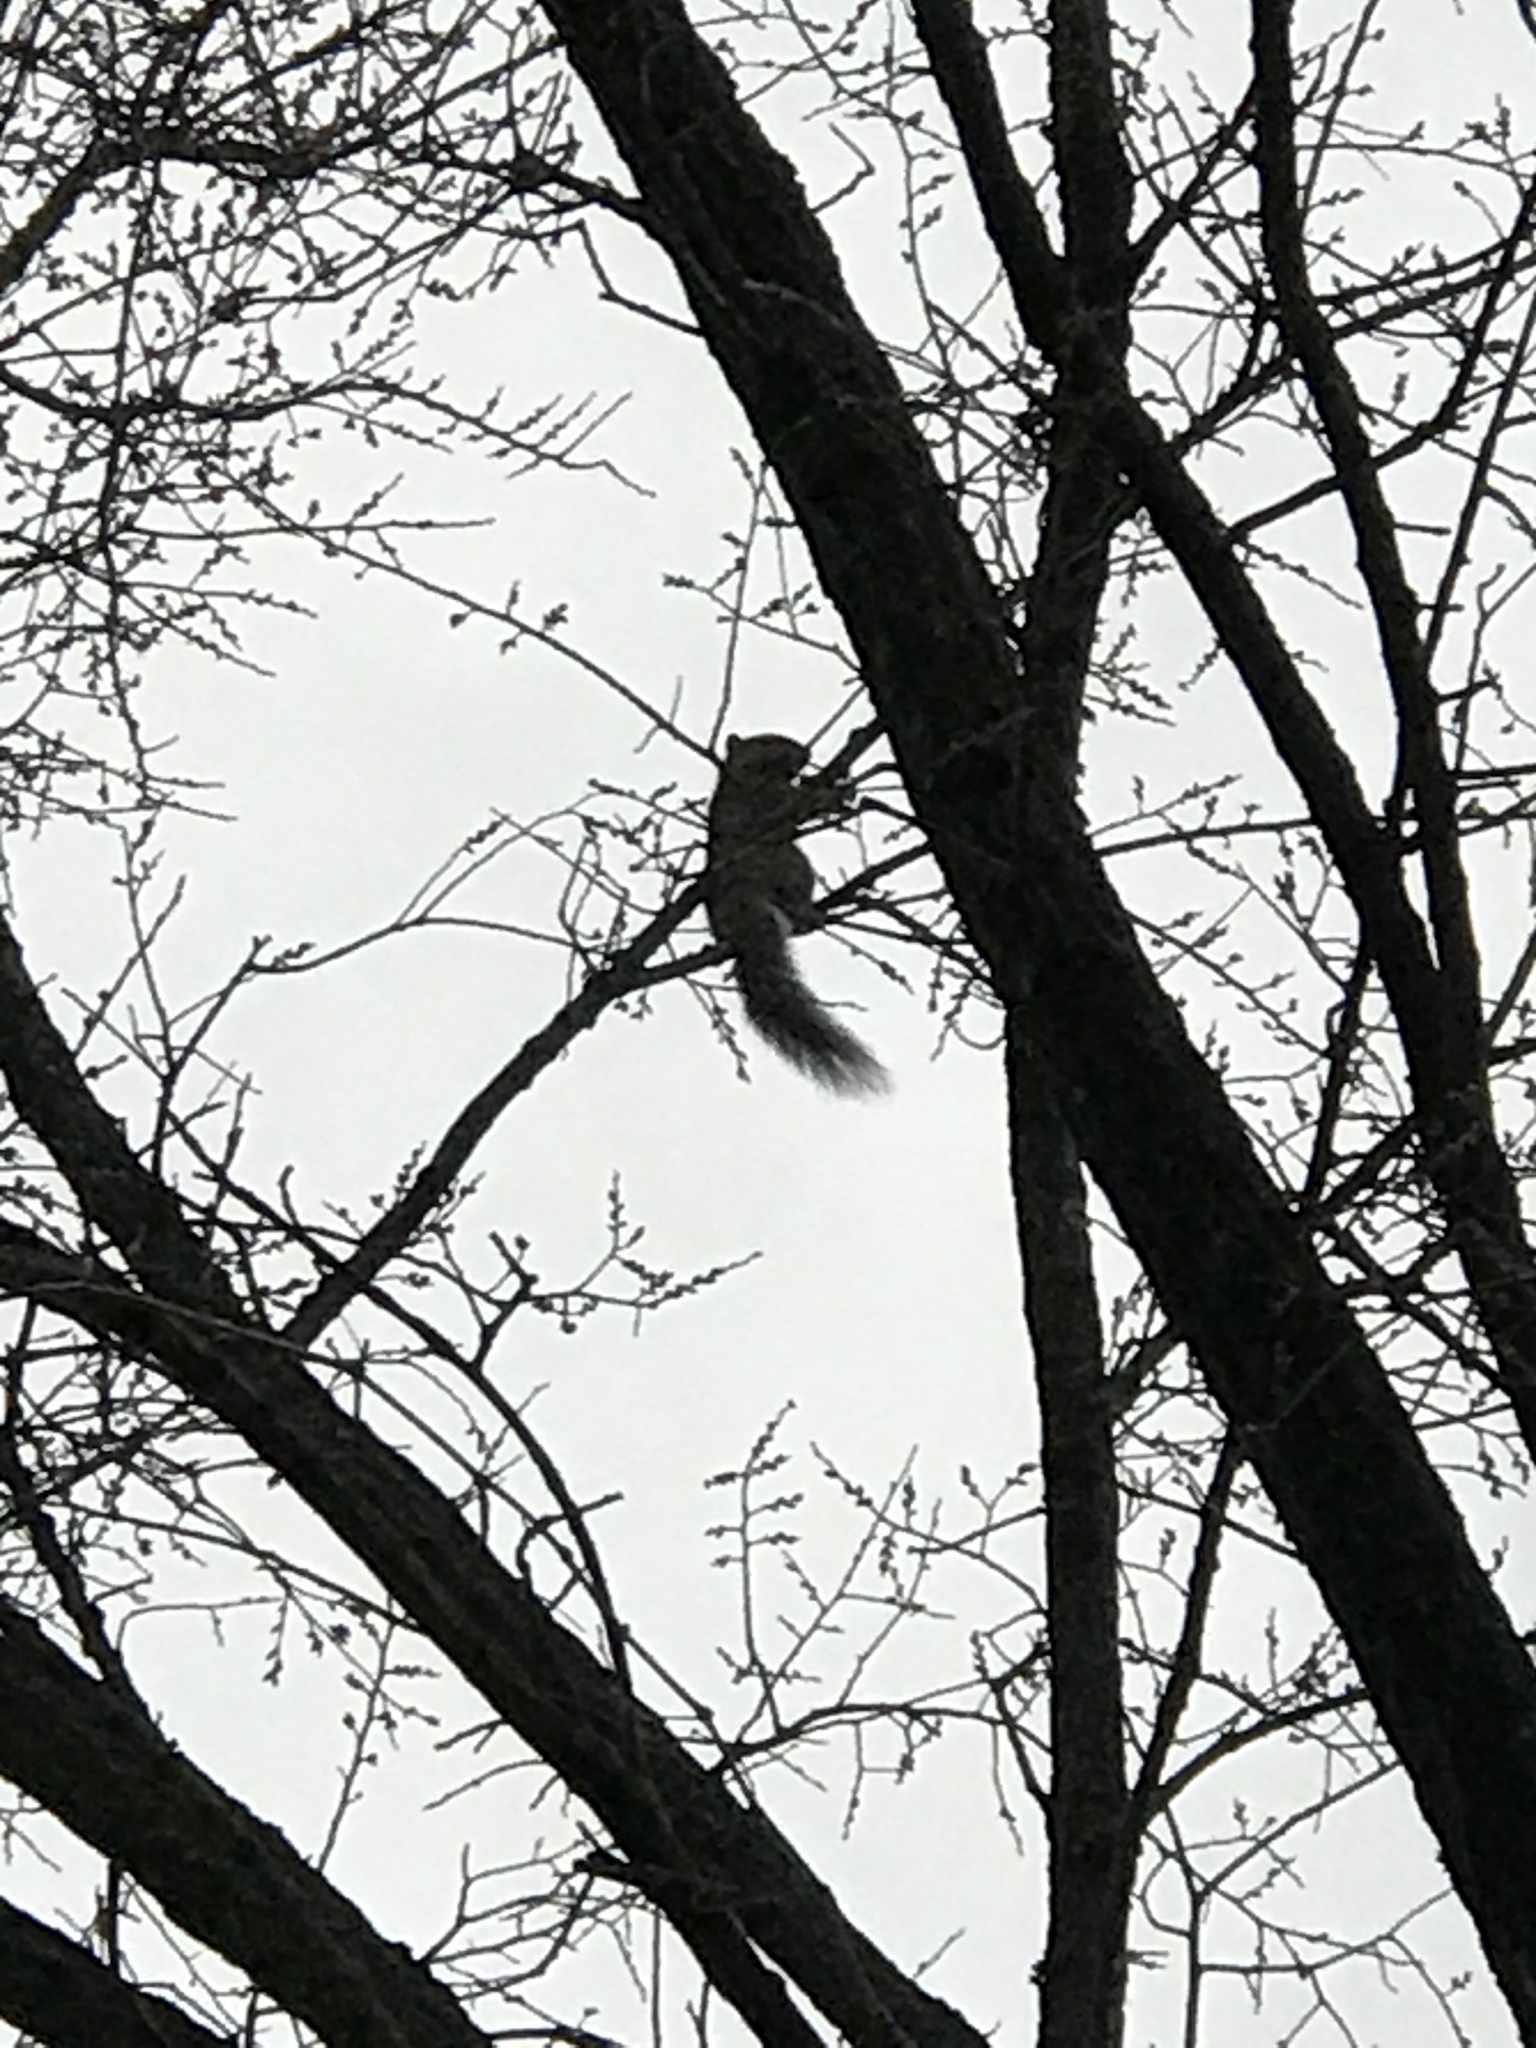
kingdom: Animalia
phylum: Chordata
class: Mammalia
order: Rodentia
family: Sciuridae
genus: Sciurus
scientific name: Sciurus carolinensis
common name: Eastern gray squirrel
